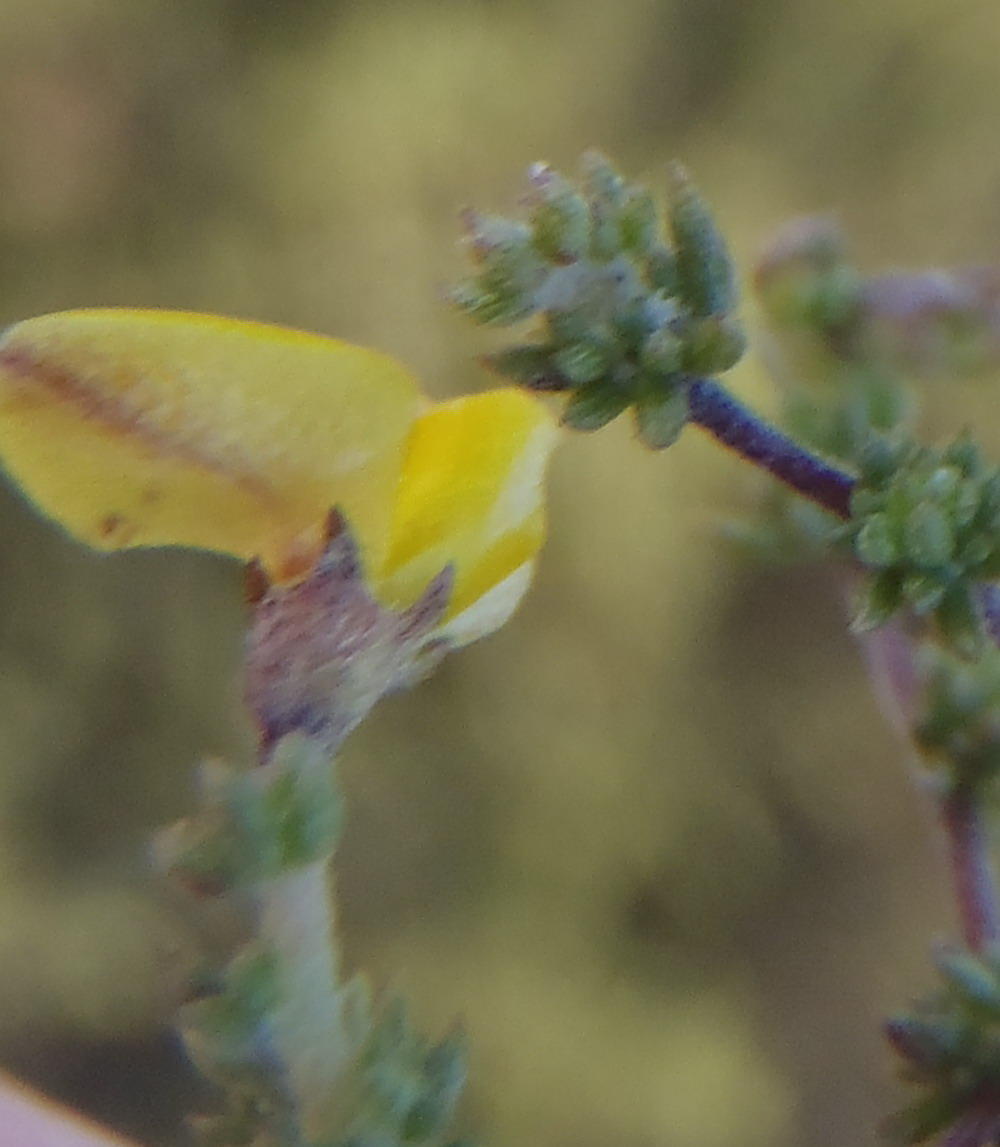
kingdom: Plantae
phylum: Tracheophyta
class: Magnoliopsida
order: Fabales
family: Fabaceae
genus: Aspalathus
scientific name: Aspalathus rubens
